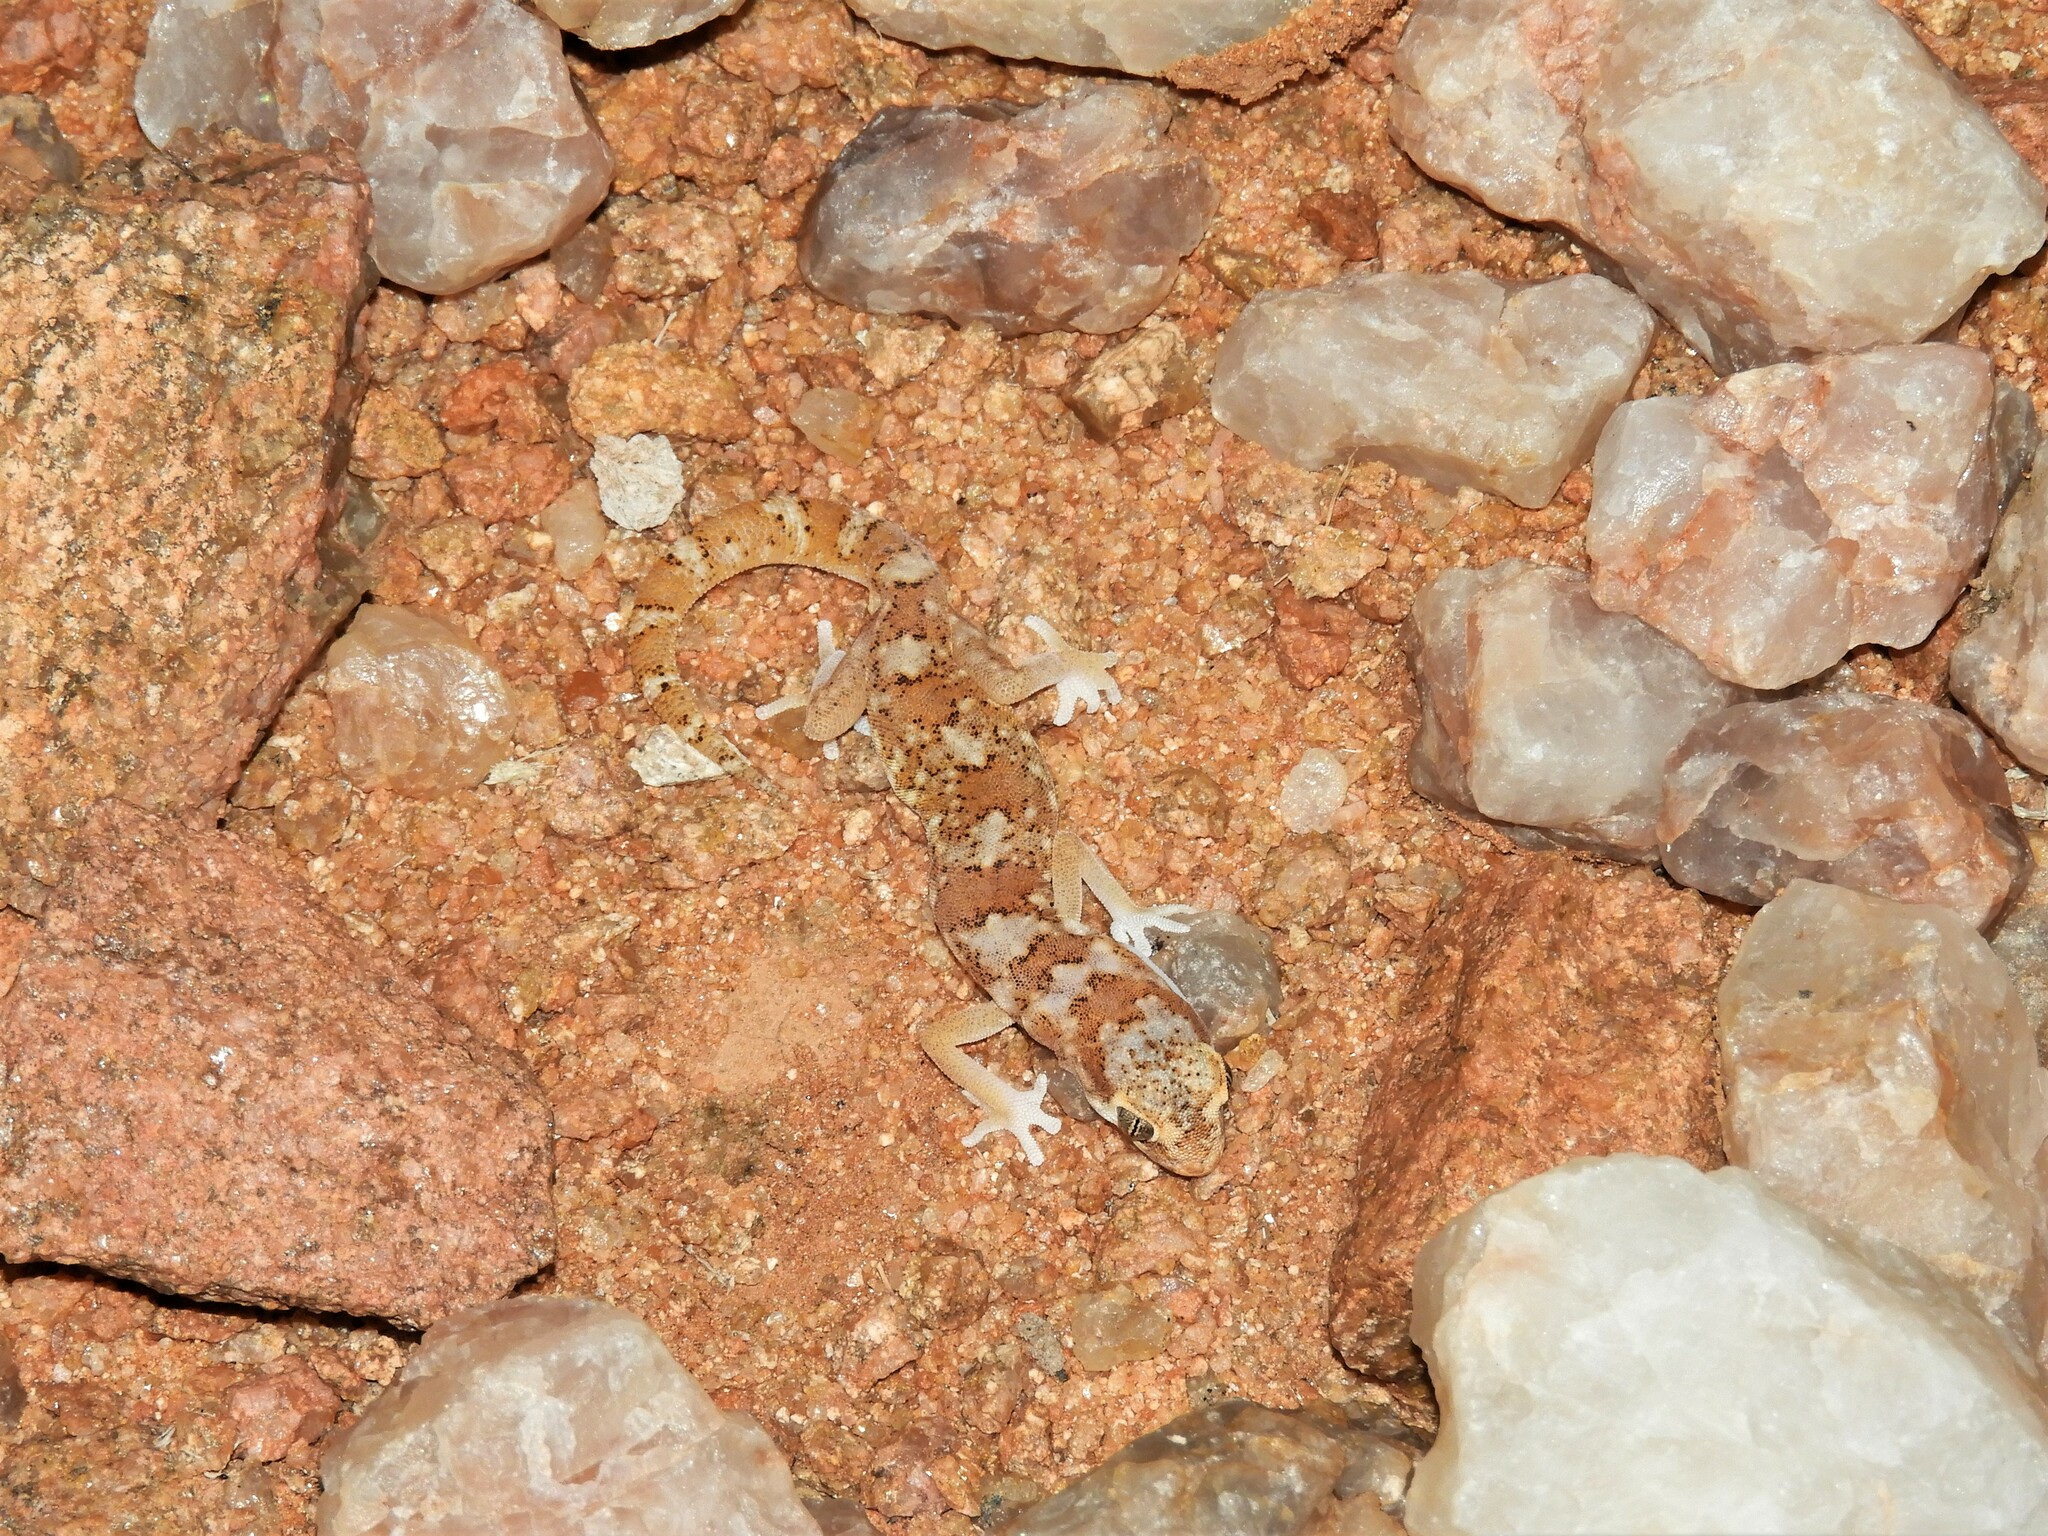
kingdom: Animalia
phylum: Chordata
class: Squamata
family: Gekkonidae
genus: Pachydactylus
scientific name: Pachydactylus latirostris
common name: Quartz gecko
